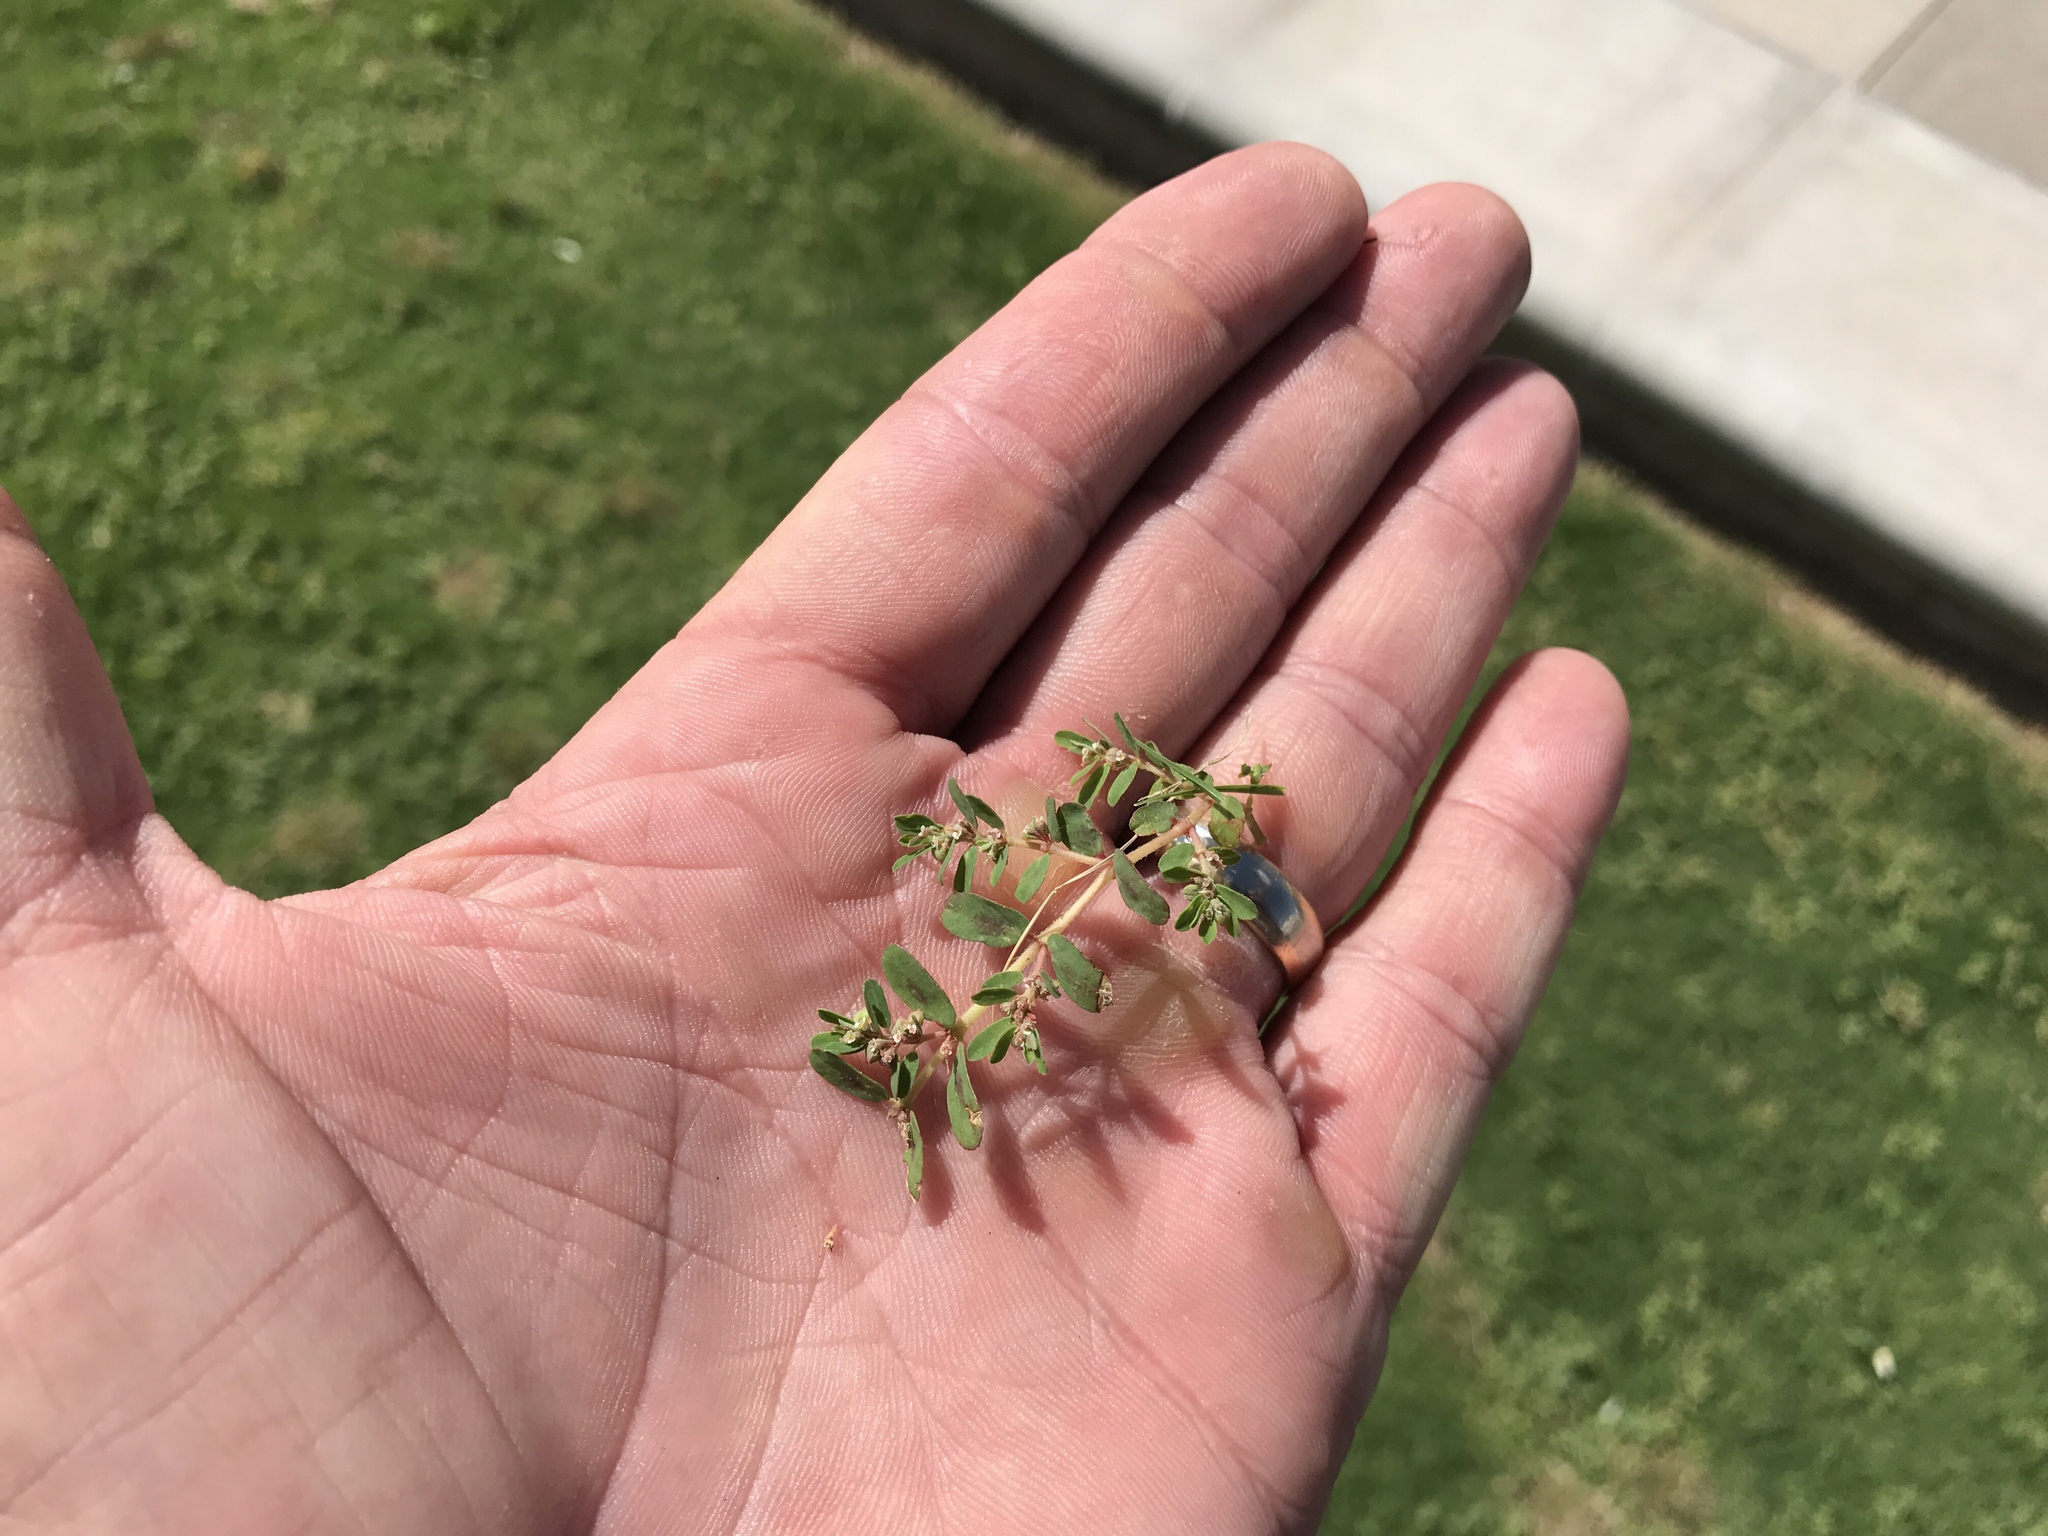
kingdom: Plantae
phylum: Tracheophyta
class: Magnoliopsida
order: Malpighiales
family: Euphorbiaceae
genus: Euphorbia
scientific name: Euphorbia maculata
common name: Spotted spurge
